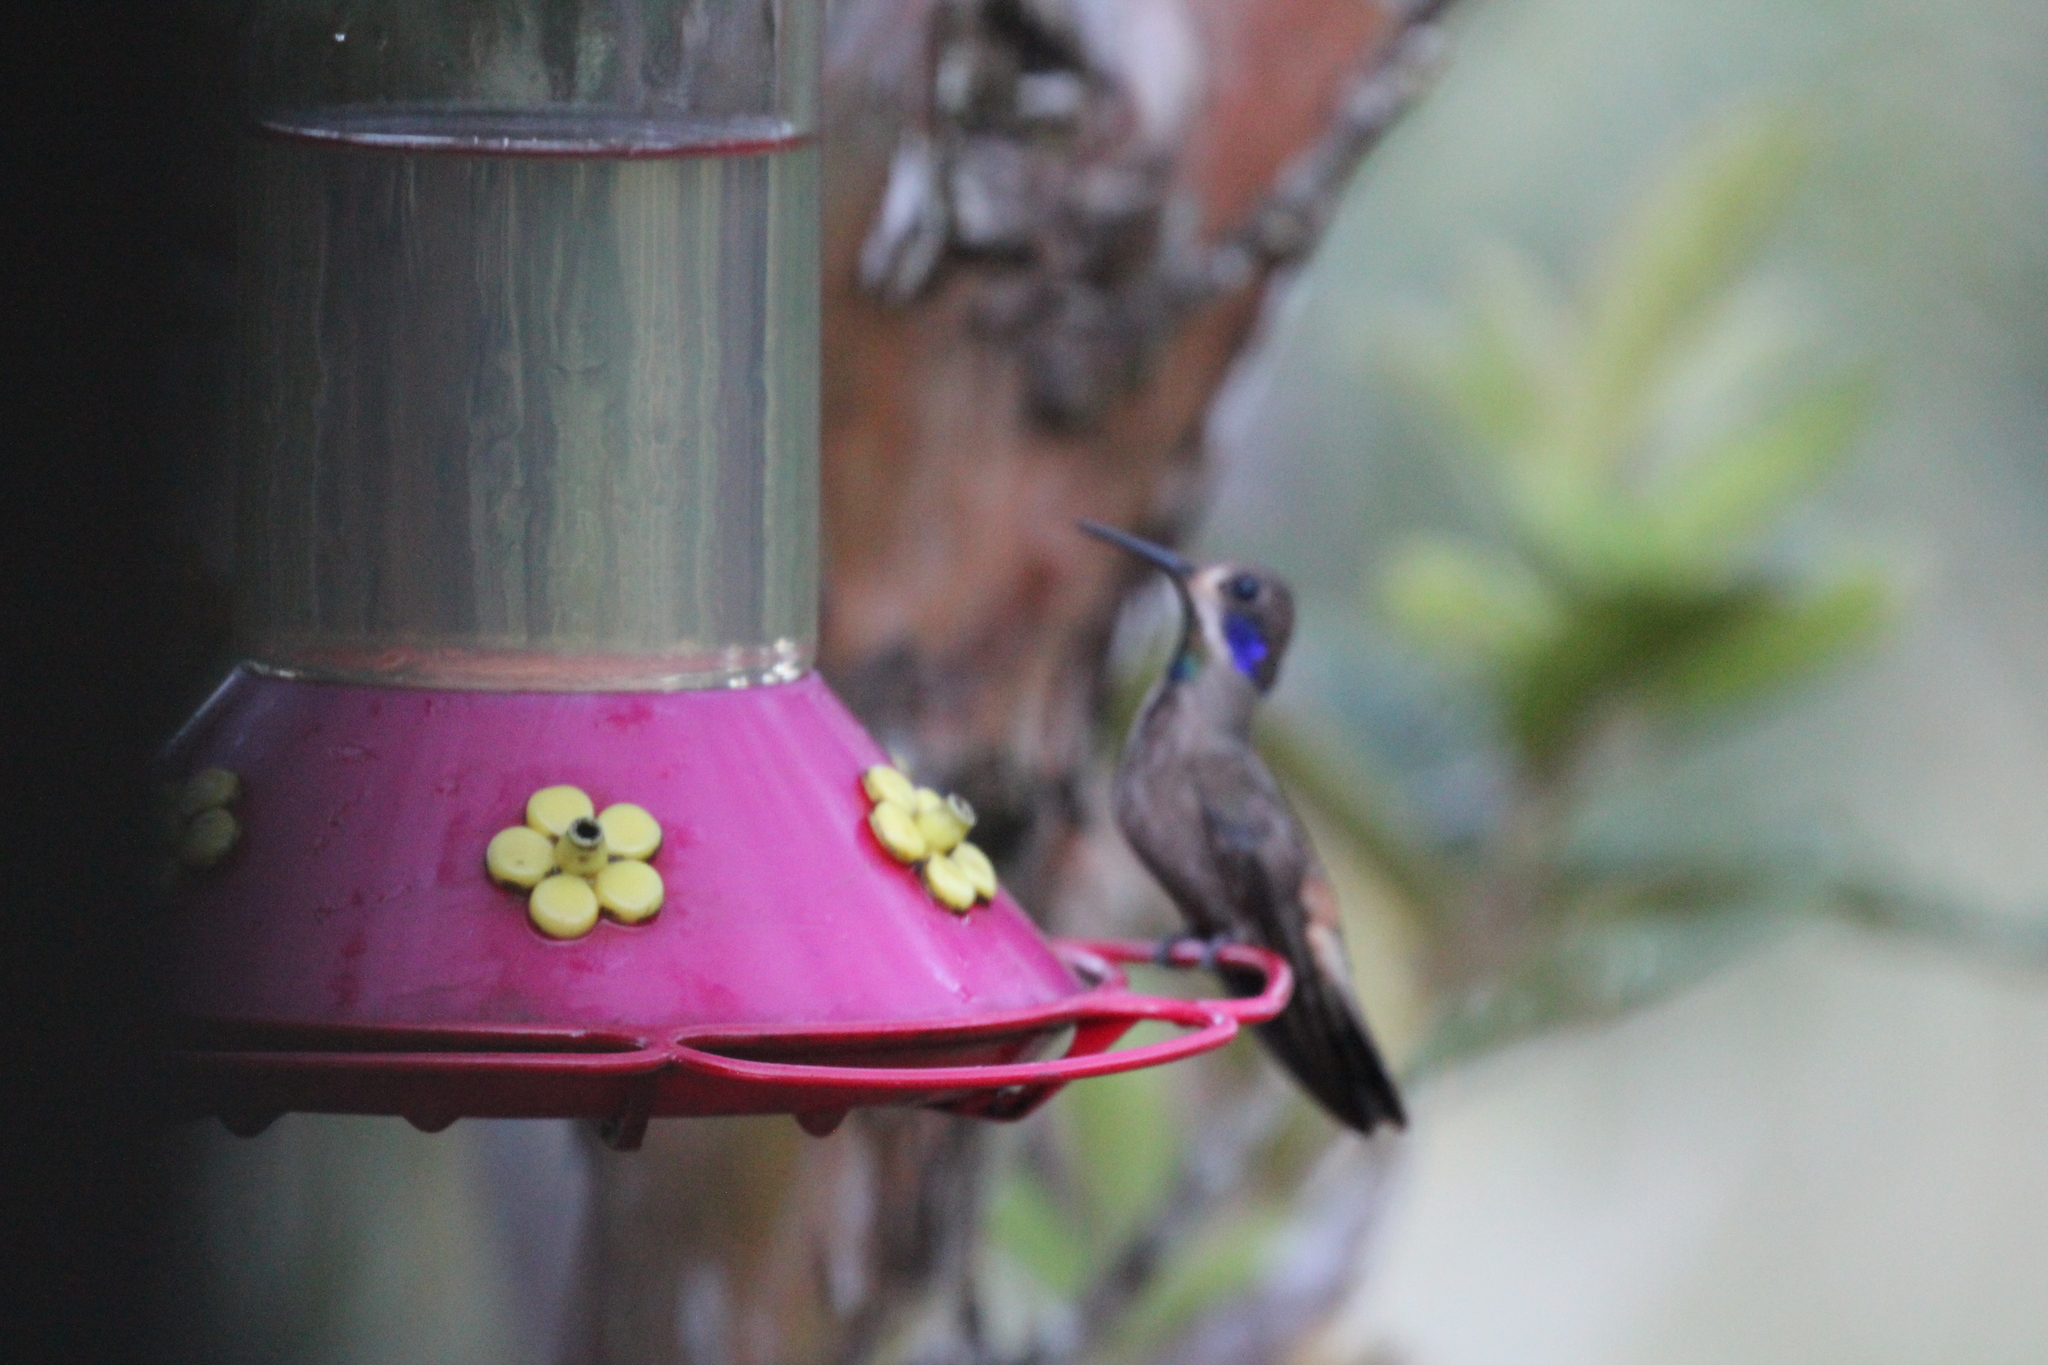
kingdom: Animalia
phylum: Chordata
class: Aves
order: Apodiformes
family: Trochilidae
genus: Colibri
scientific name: Colibri delphinae
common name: Brown violetear
